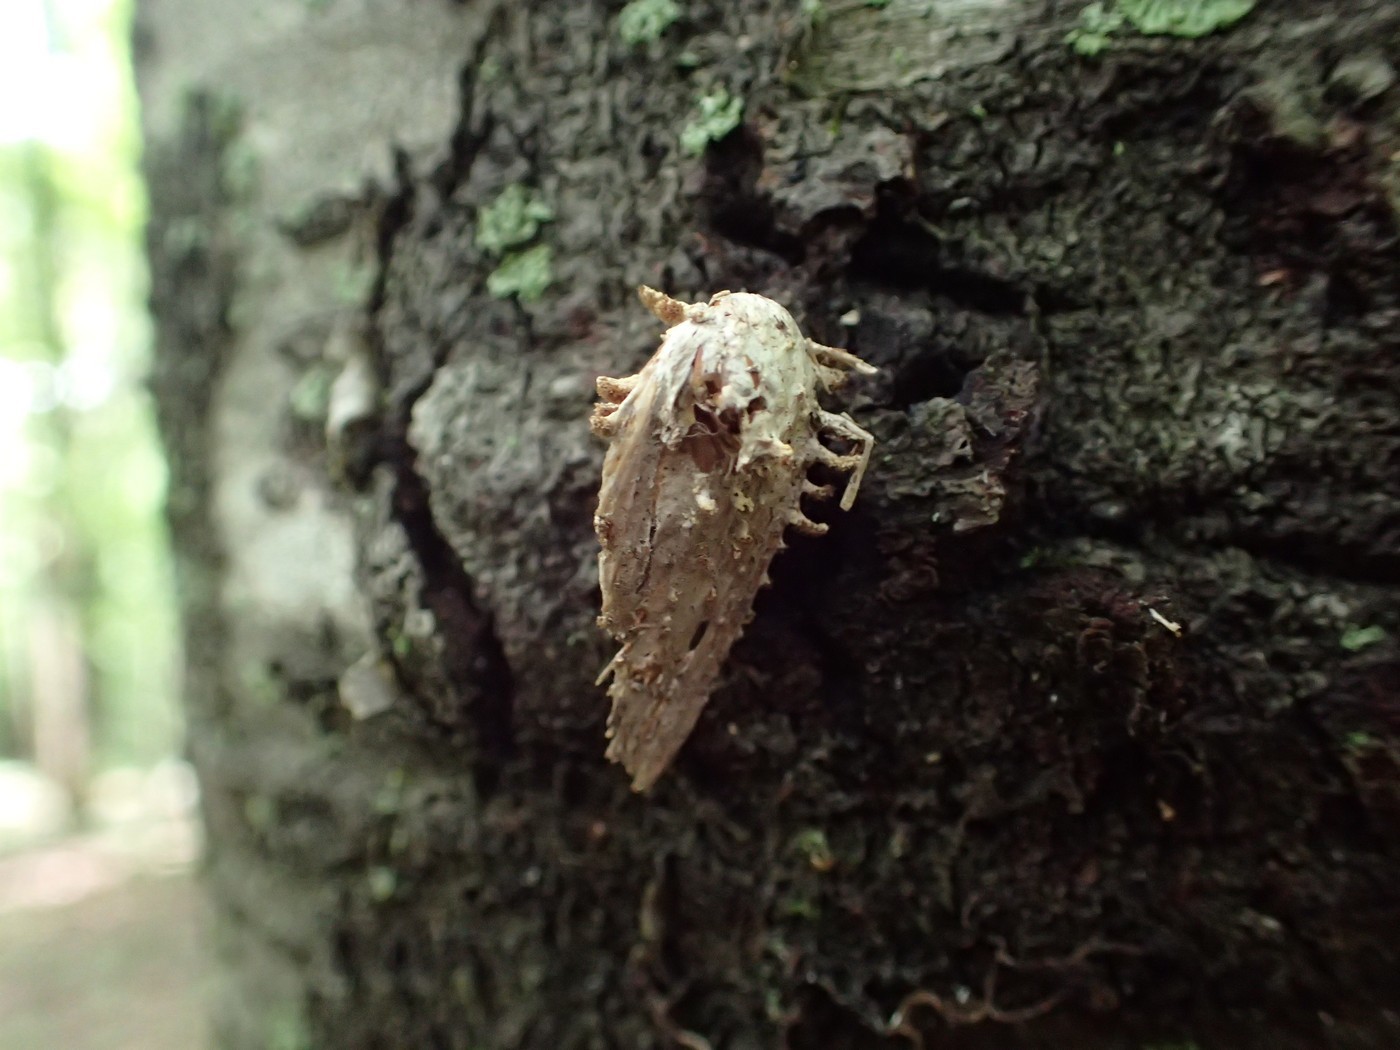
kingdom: Fungi
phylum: Ascomycota
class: Sordariomycetes
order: Hypocreales
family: Cordycipitaceae
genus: Akanthomyces
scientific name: Akanthomyces aculeatus
